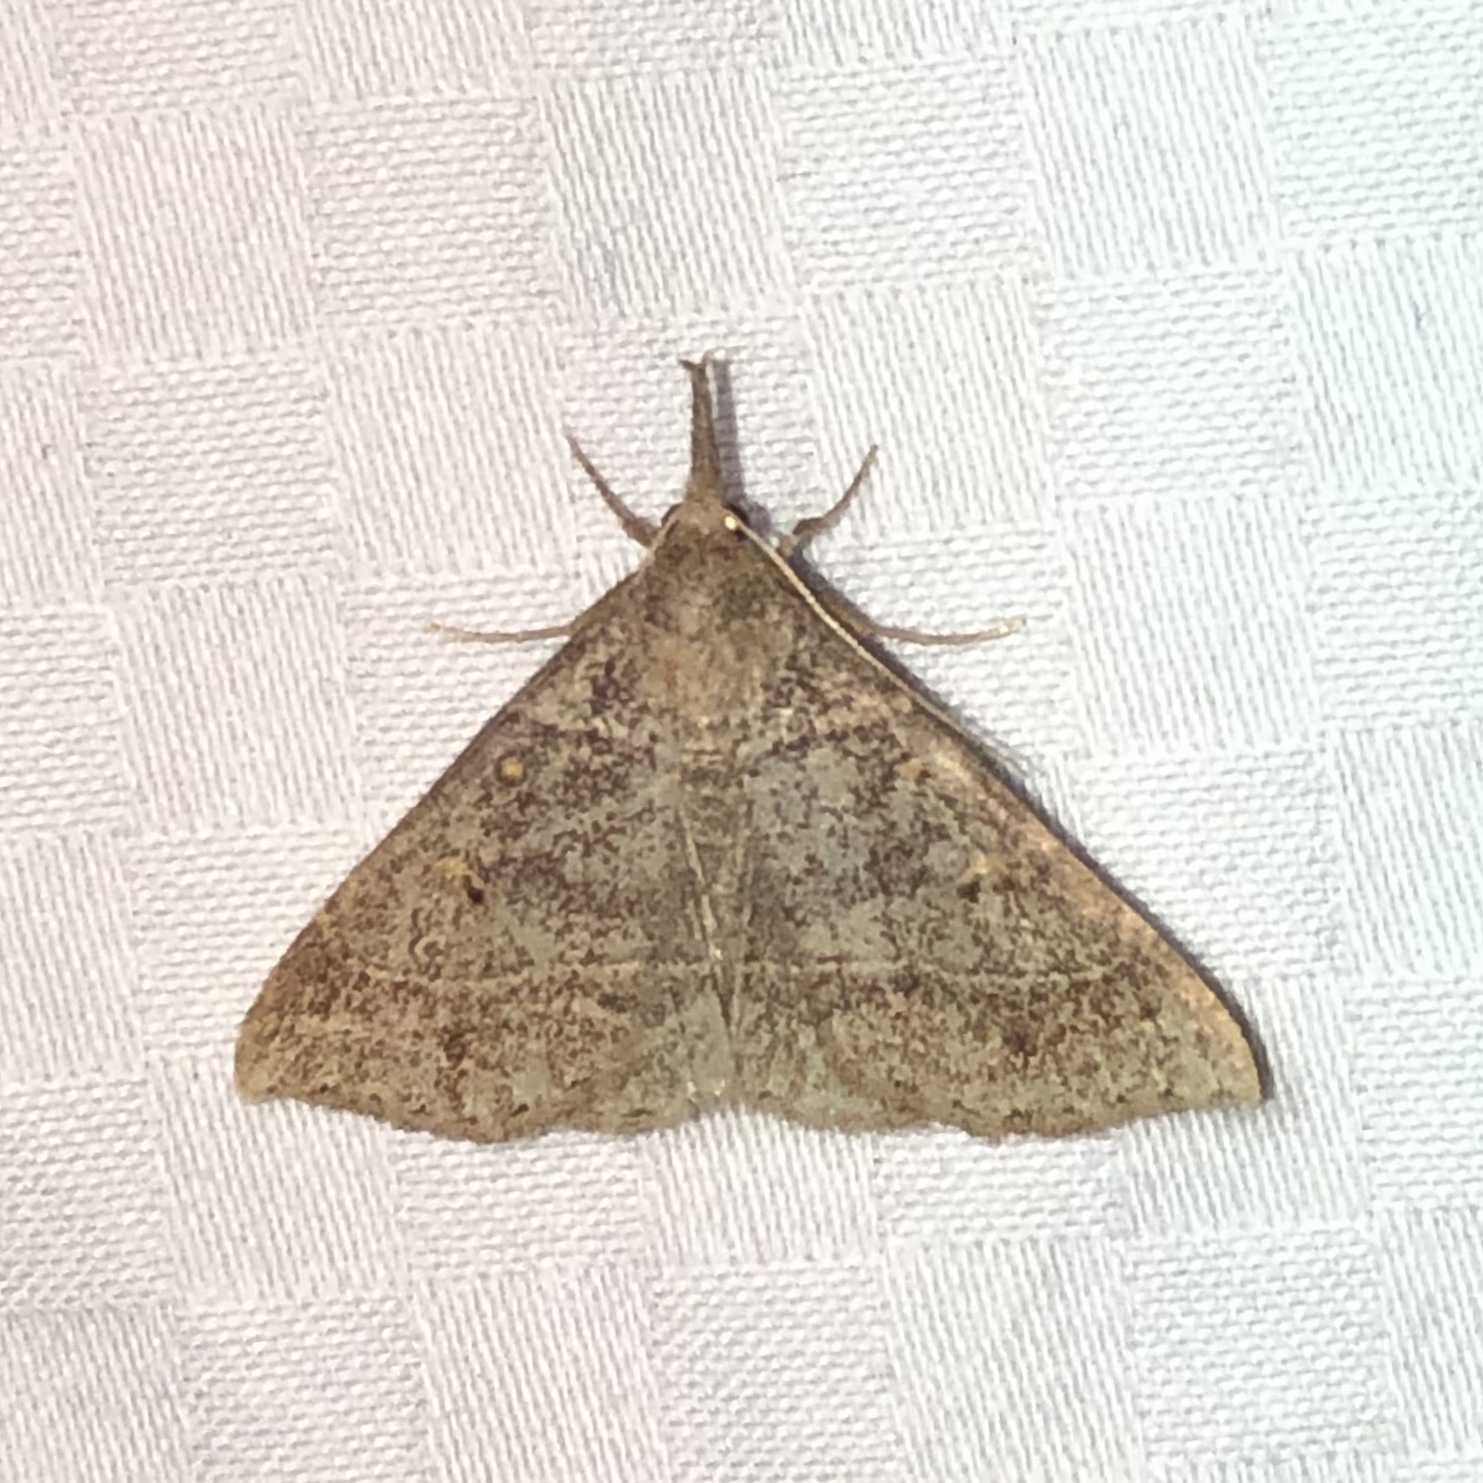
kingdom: Animalia
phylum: Arthropoda
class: Insecta
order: Lepidoptera
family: Erebidae
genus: Renia
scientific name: Renia flavipunctalis
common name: Yellow-spotted renia moth
